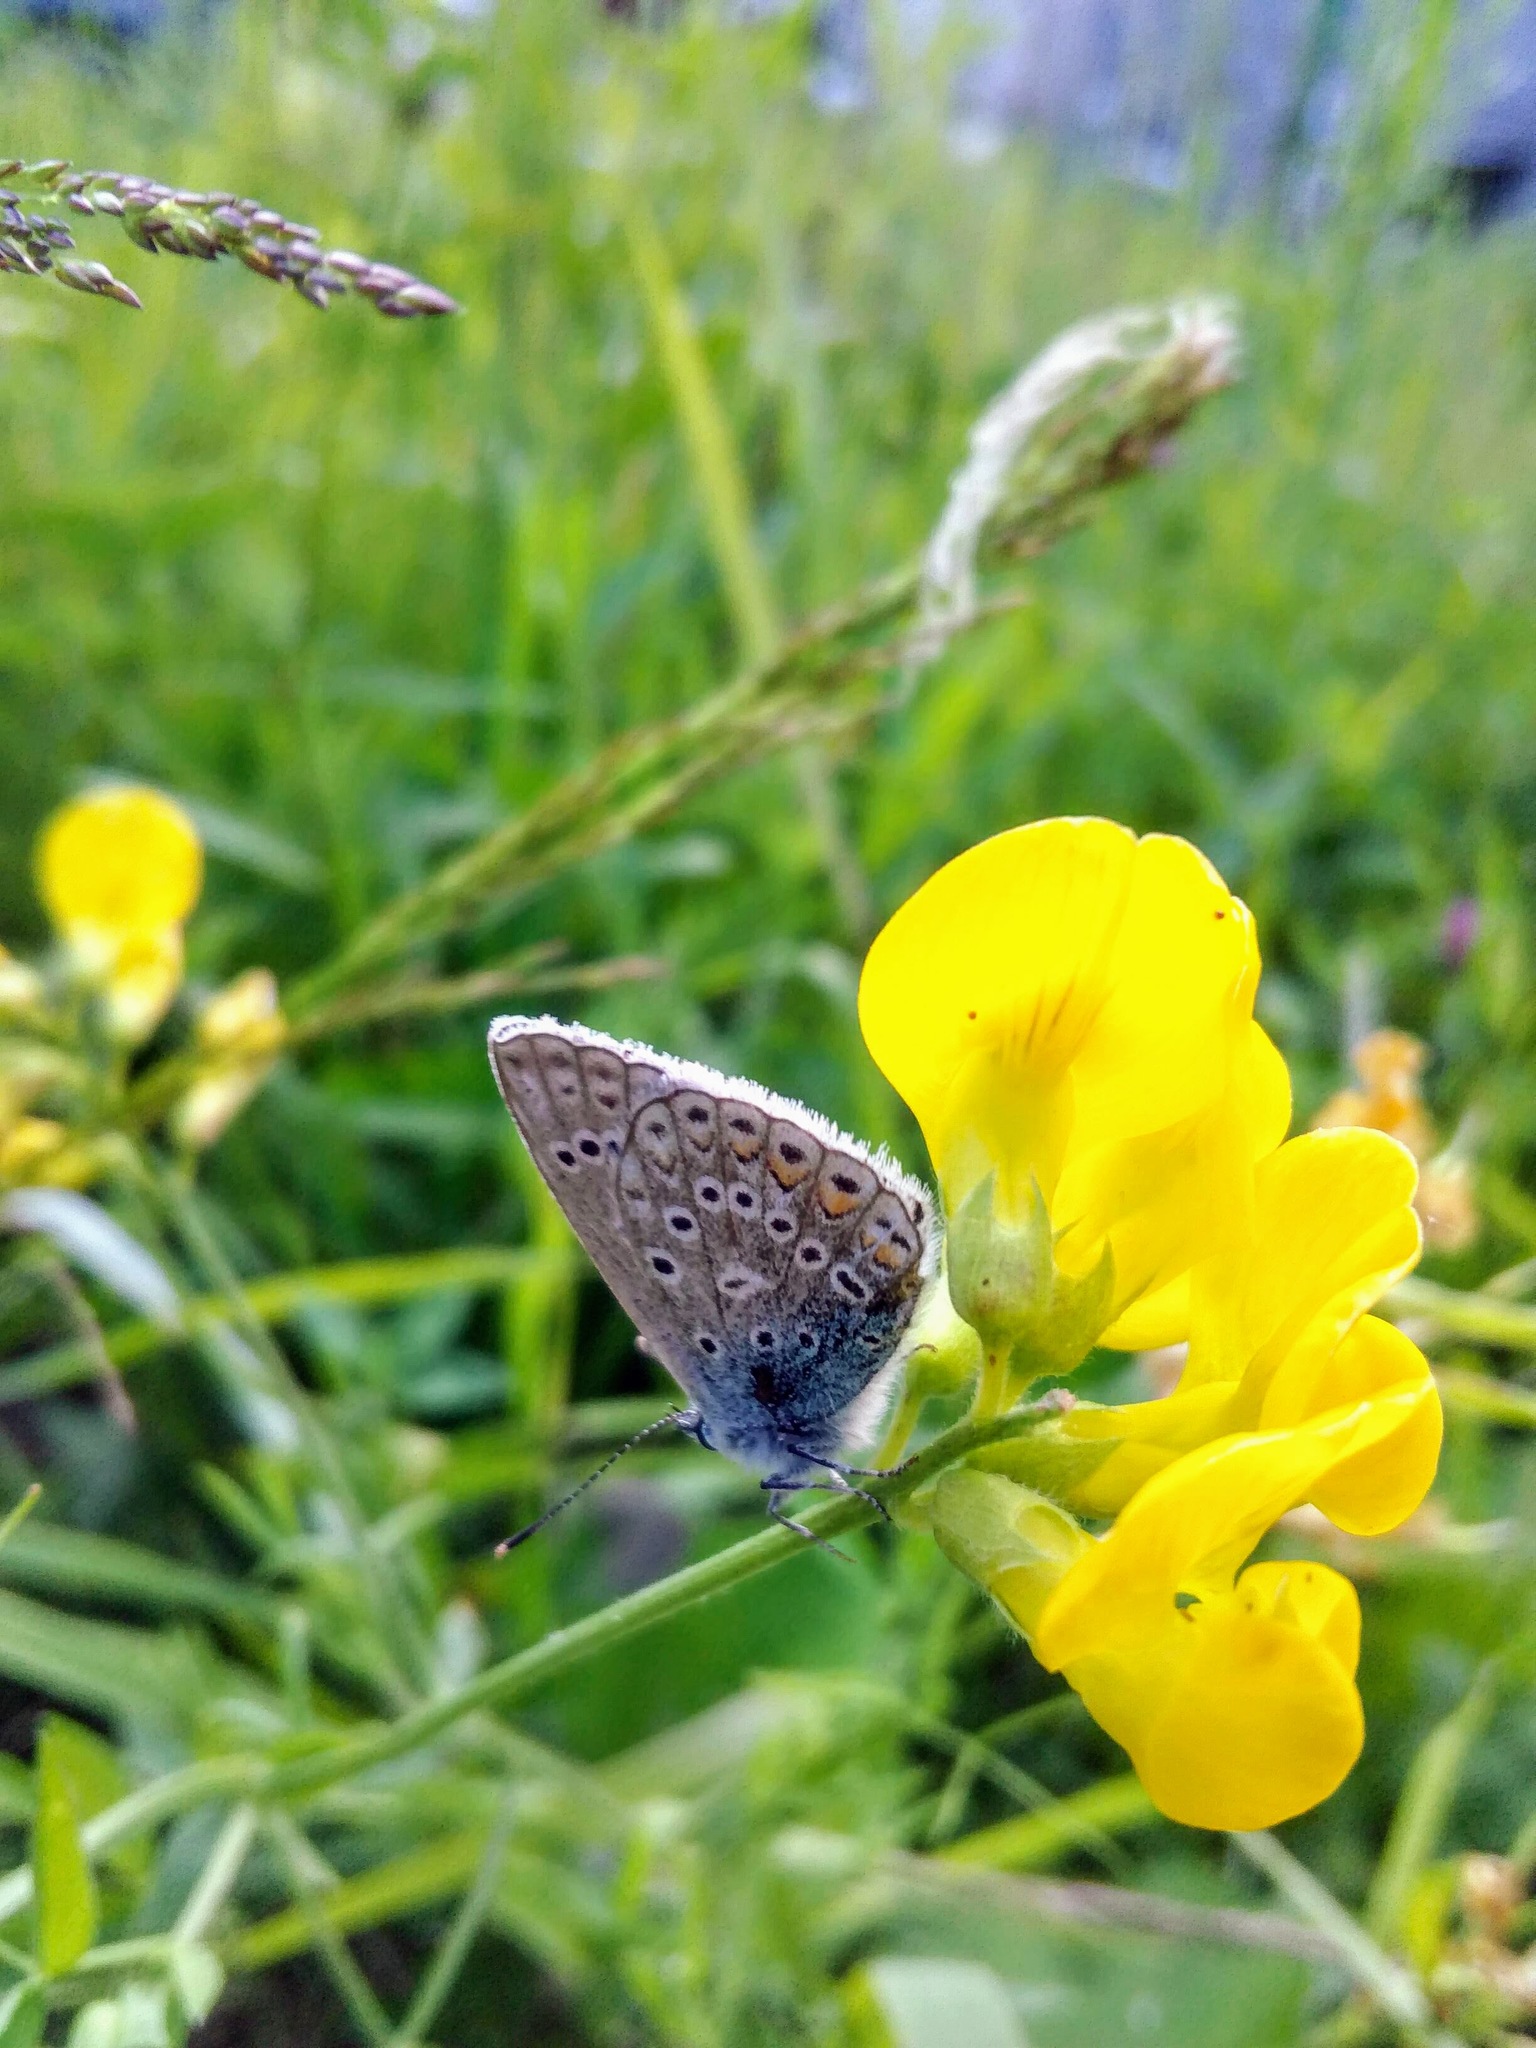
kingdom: Animalia
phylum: Arthropoda
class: Insecta
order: Lepidoptera
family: Lycaenidae
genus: Polyommatus
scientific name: Polyommatus icarus
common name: Common blue
